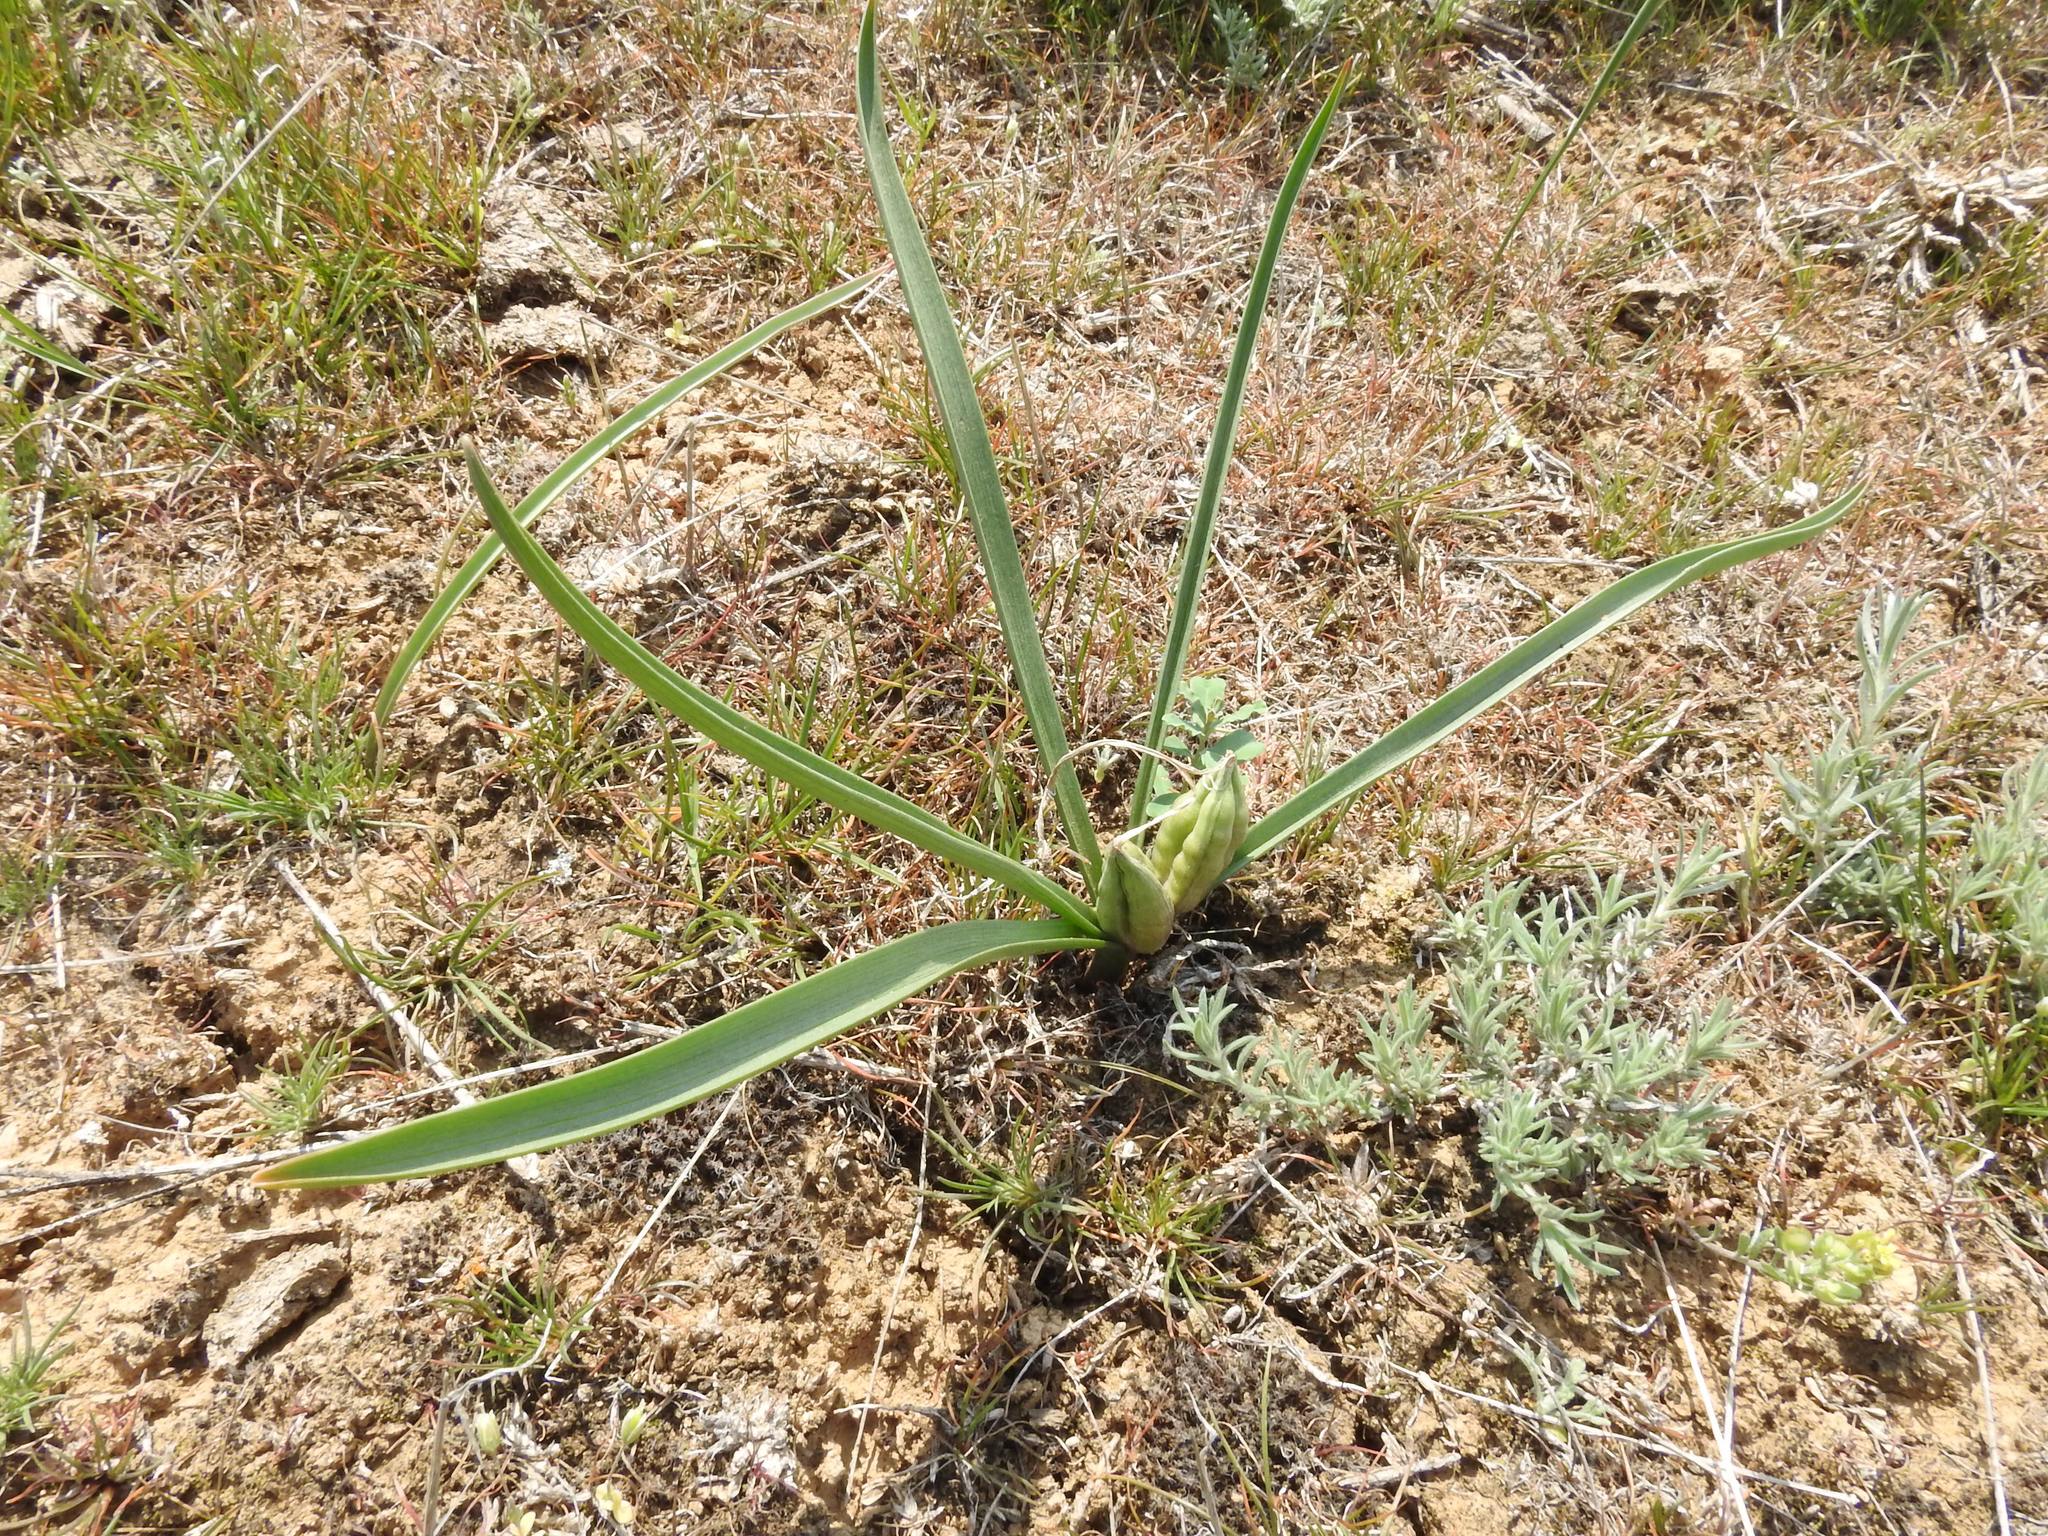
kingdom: Plantae
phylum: Tracheophyta
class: Liliopsida
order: Liliales
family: Colchicaceae
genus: Colchicum
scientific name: Colchicum laetum
